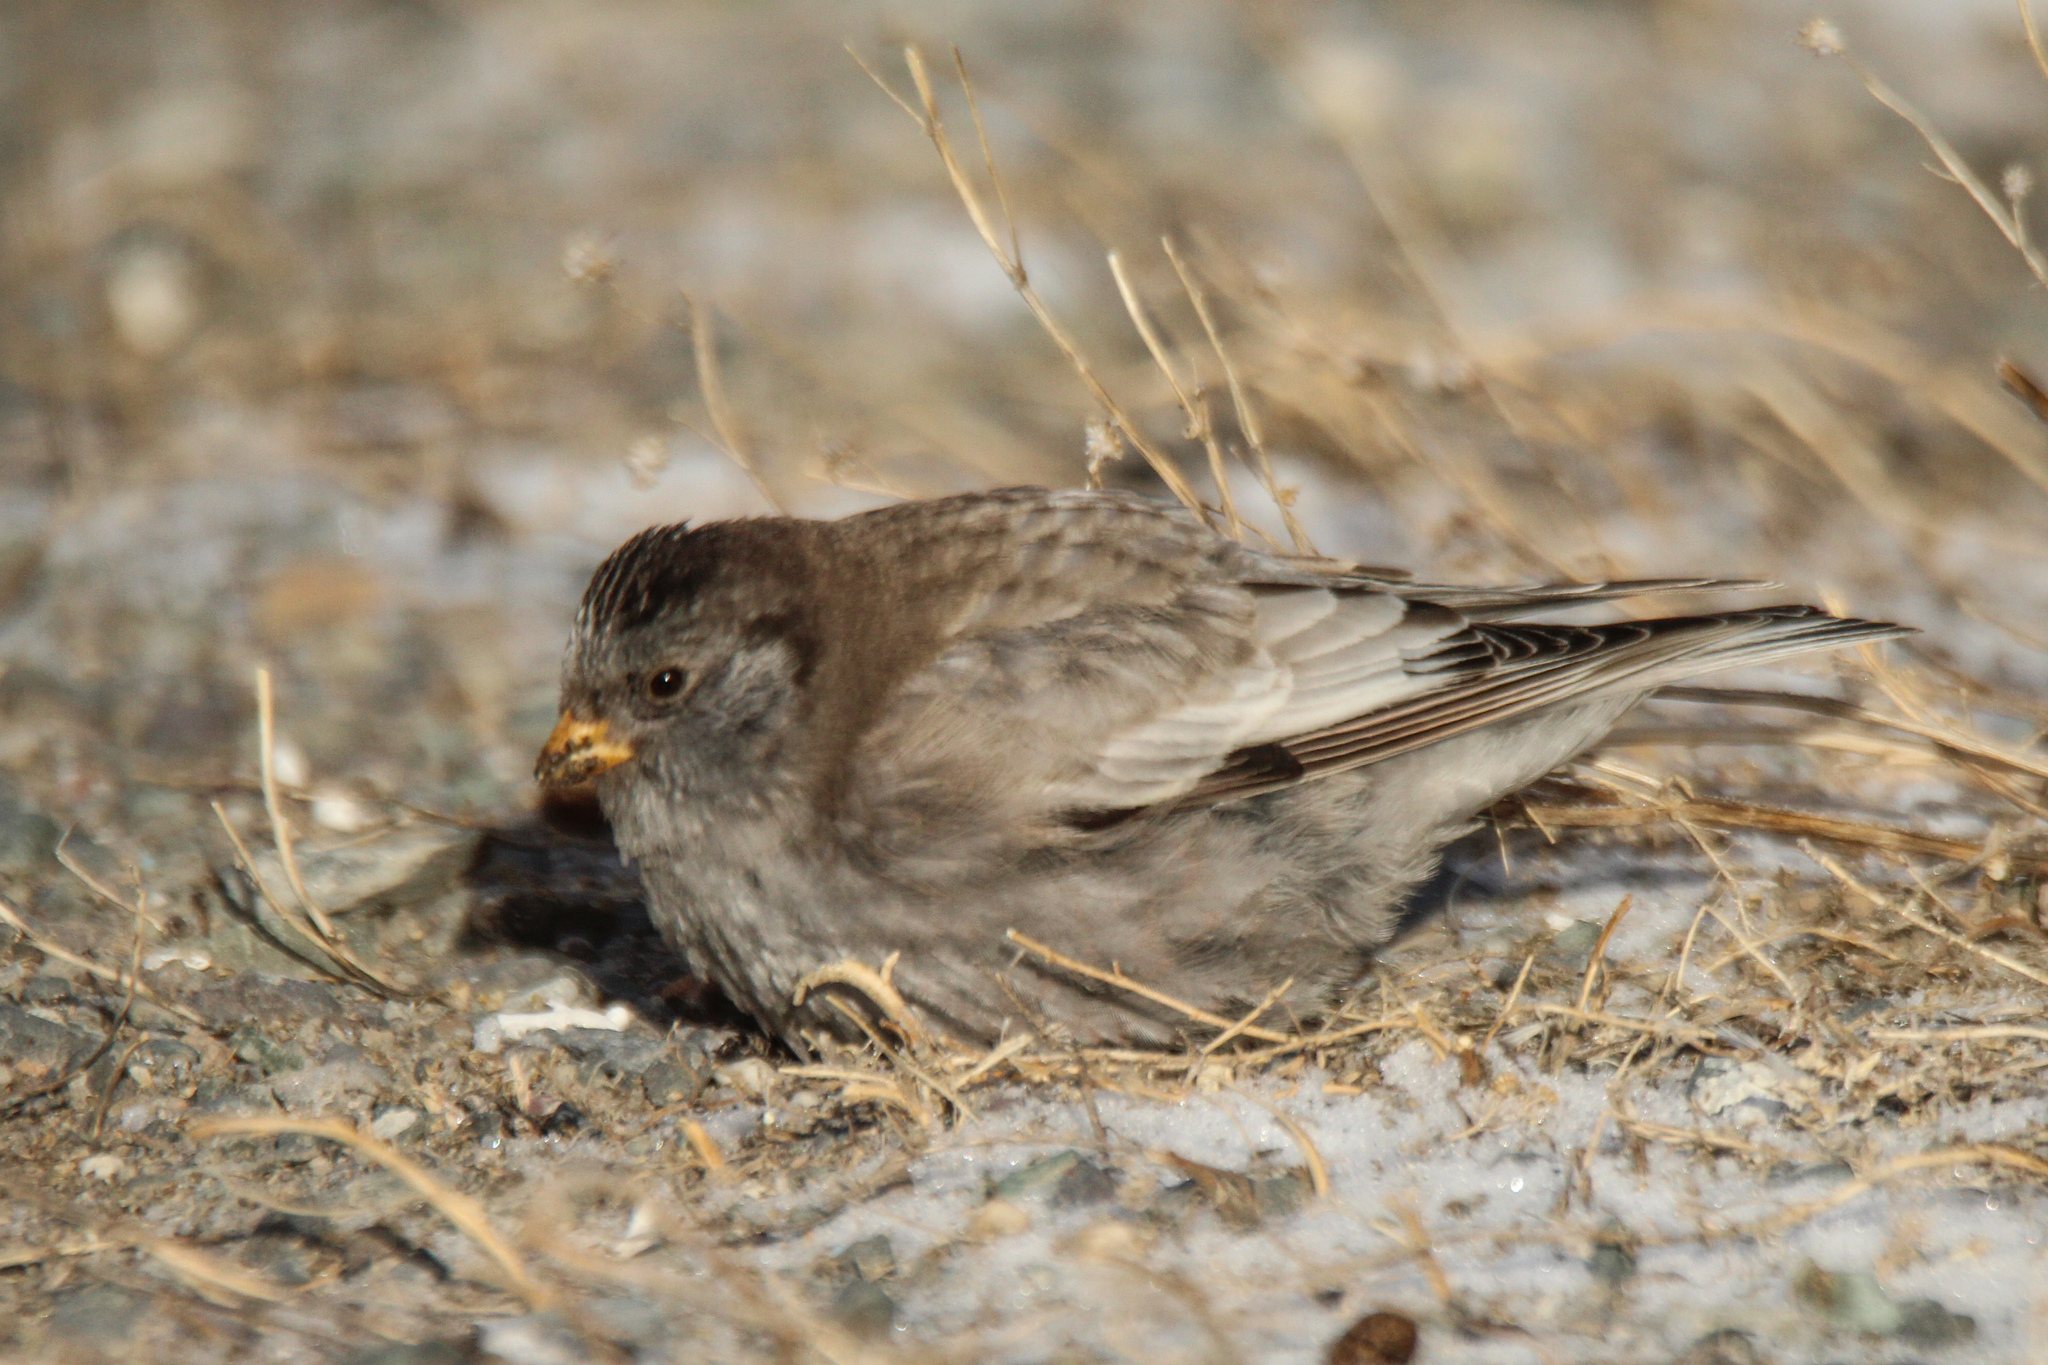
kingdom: Animalia
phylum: Chordata
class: Aves
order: Passeriformes
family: Fringillidae
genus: Leucosticte
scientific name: Leucosticte brandti
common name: Brandt's mountain finch
